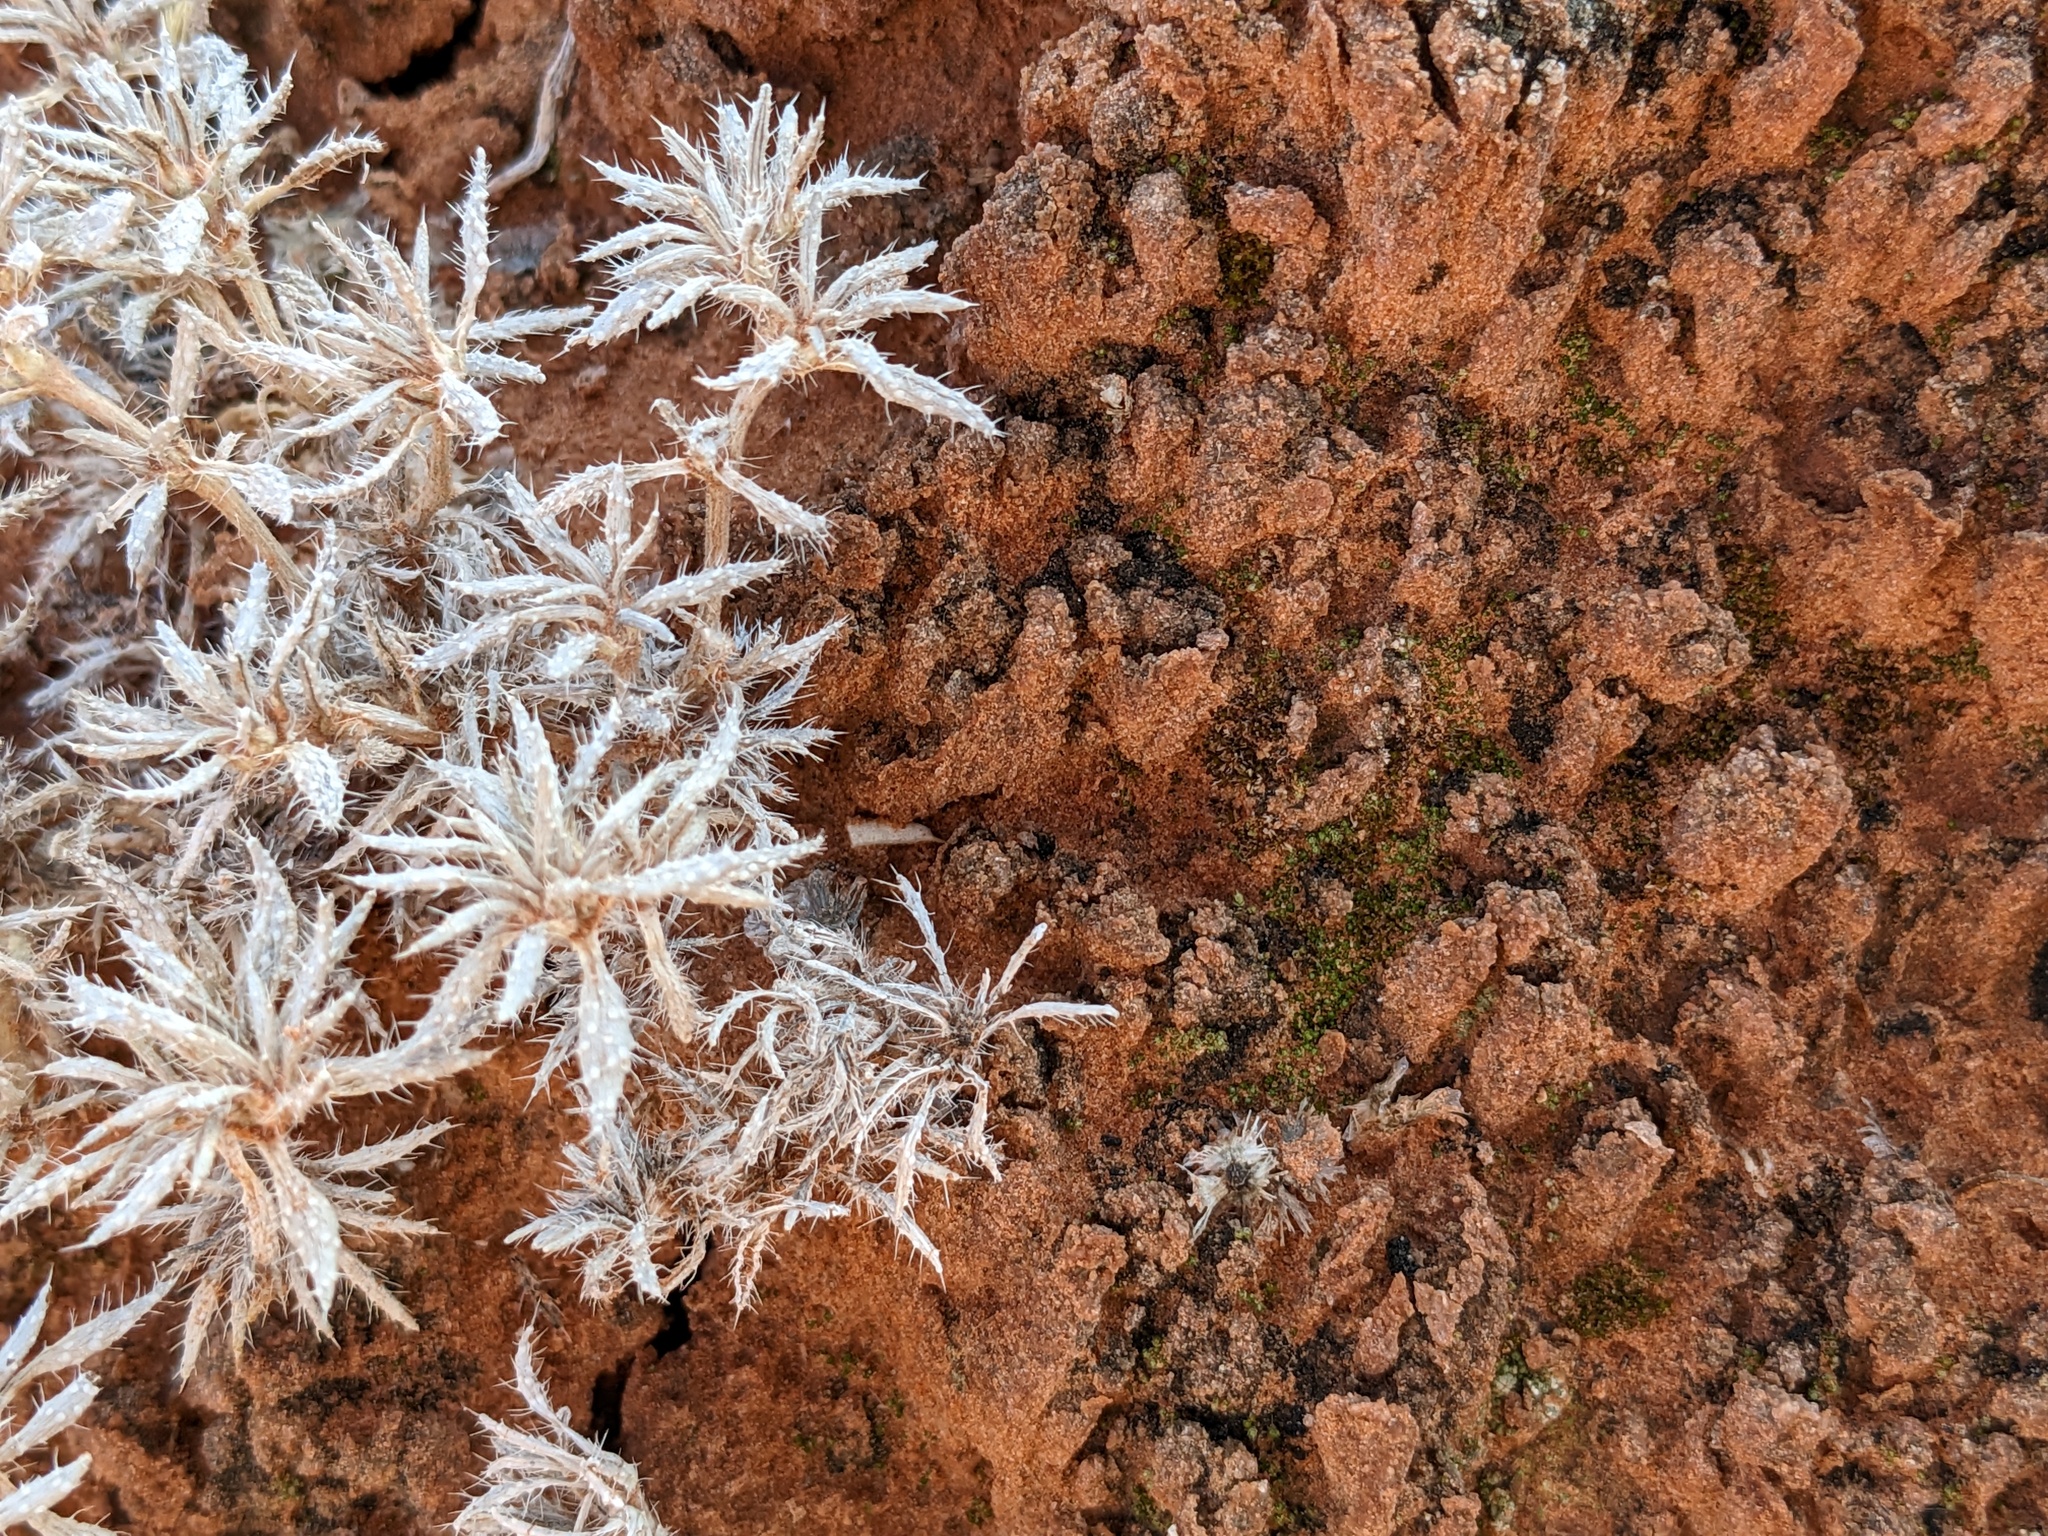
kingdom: Plantae
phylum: Tracheophyta
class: Magnoliopsida
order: Boraginales
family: Ehretiaceae
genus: Tiquilia
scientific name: Tiquilia latior
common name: Matted tiquilia
